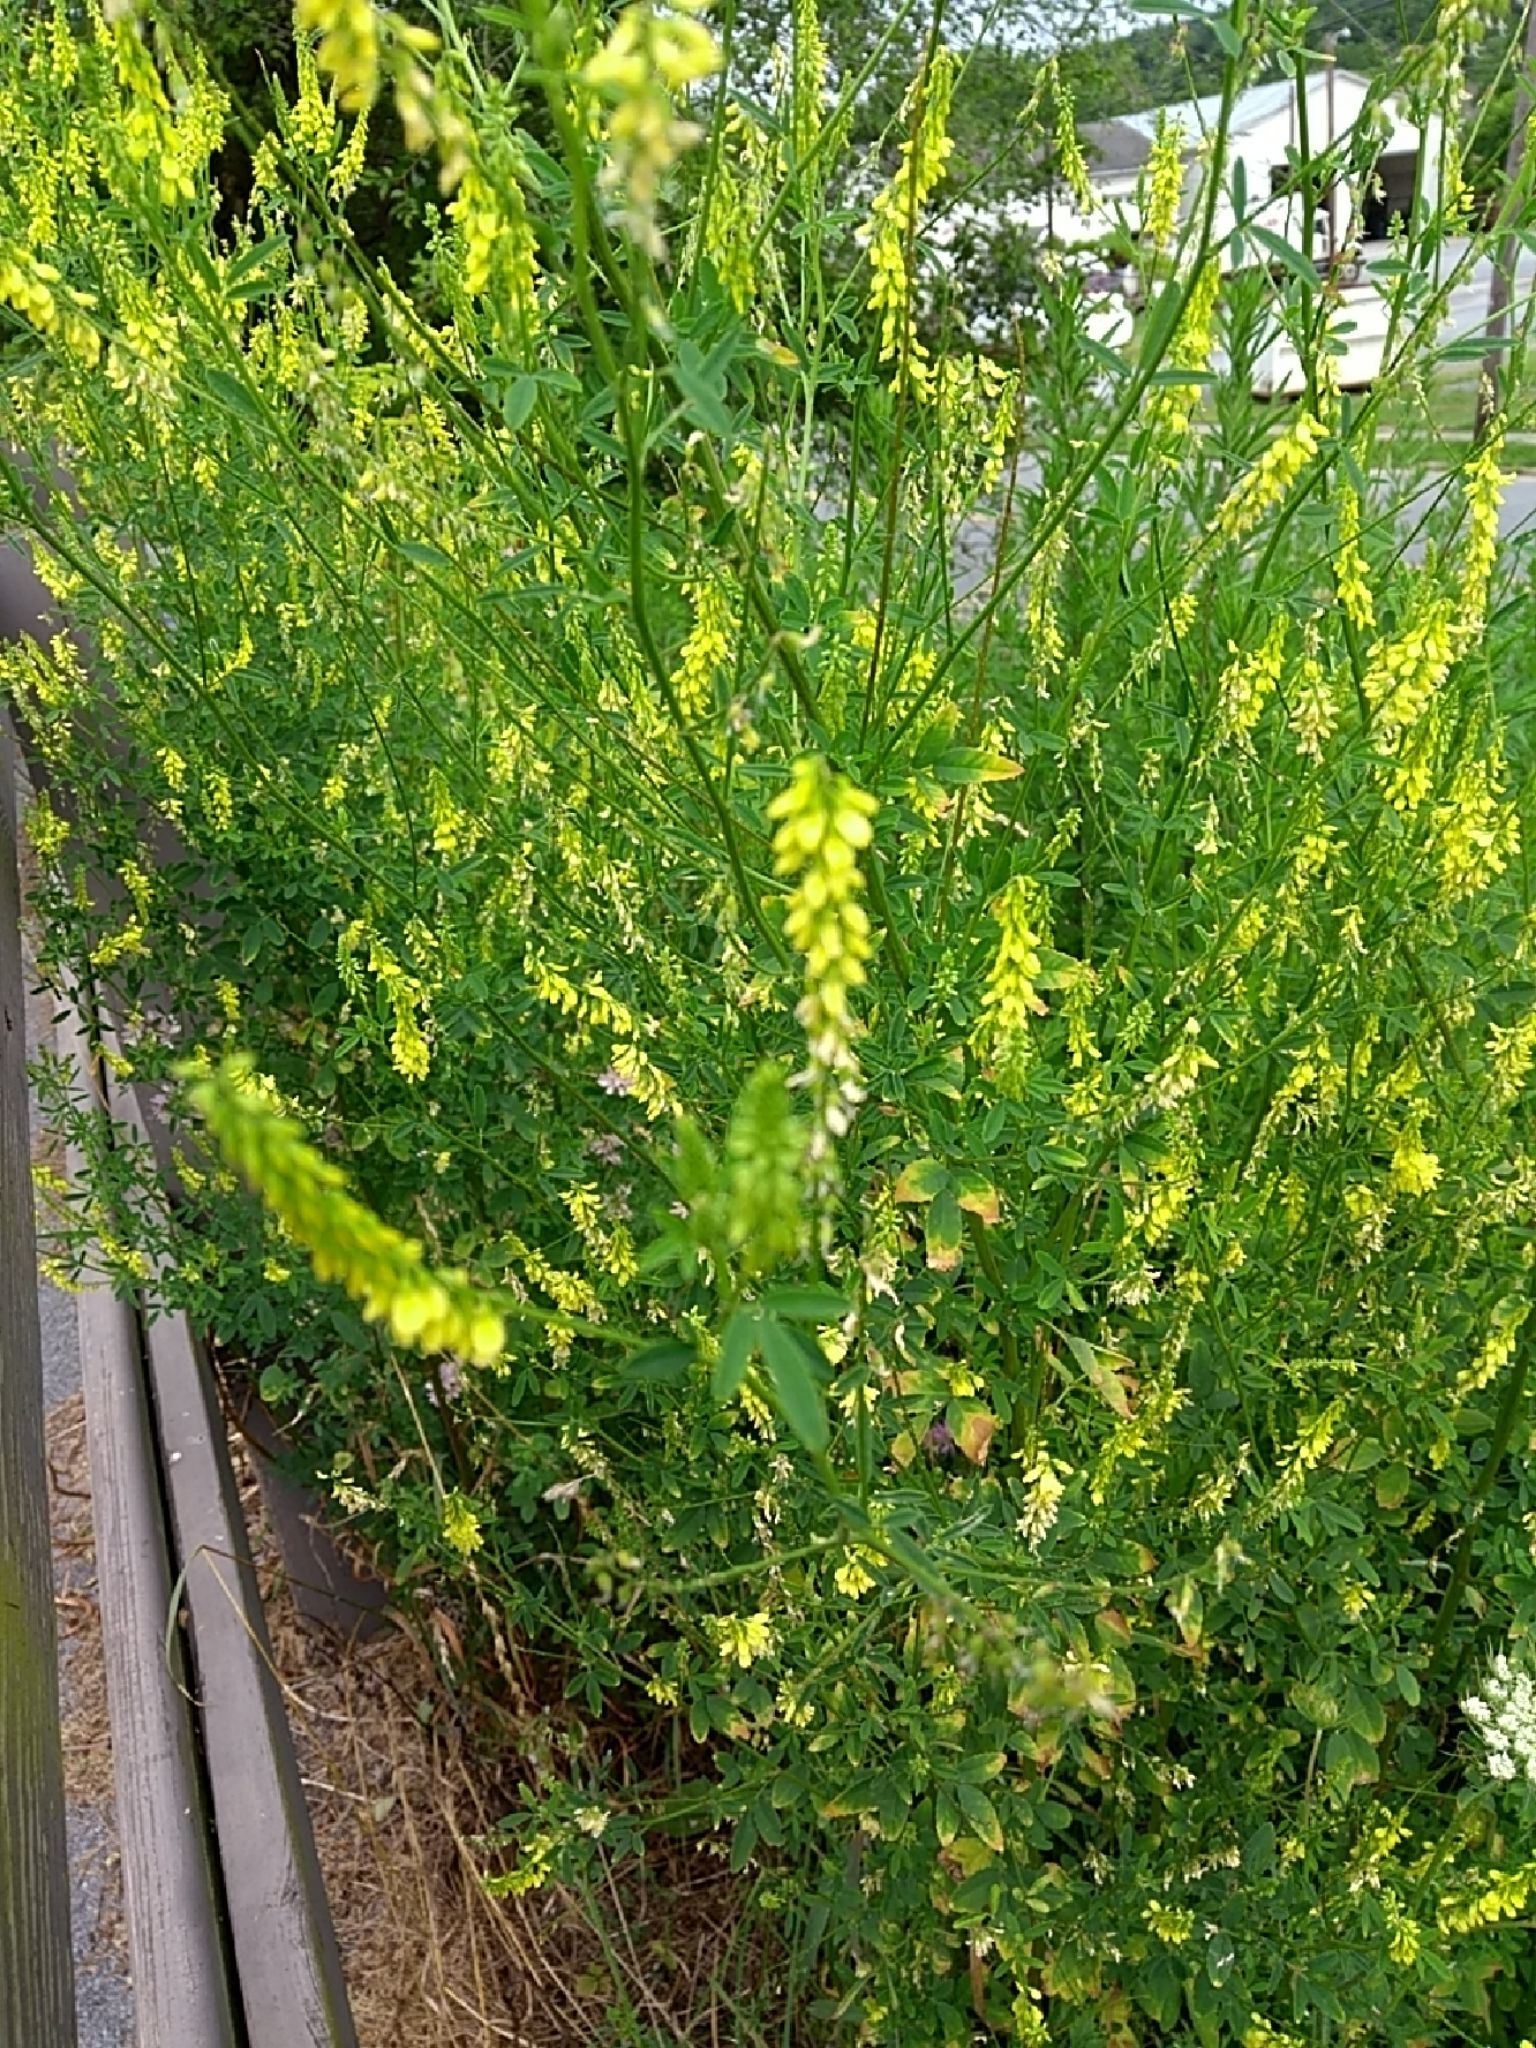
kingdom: Plantae
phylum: Tracheophyta
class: Magnoliopsida
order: Fabales
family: Fabaceae
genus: Melilotus
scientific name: Melilotus officinalis
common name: Sweetclover
